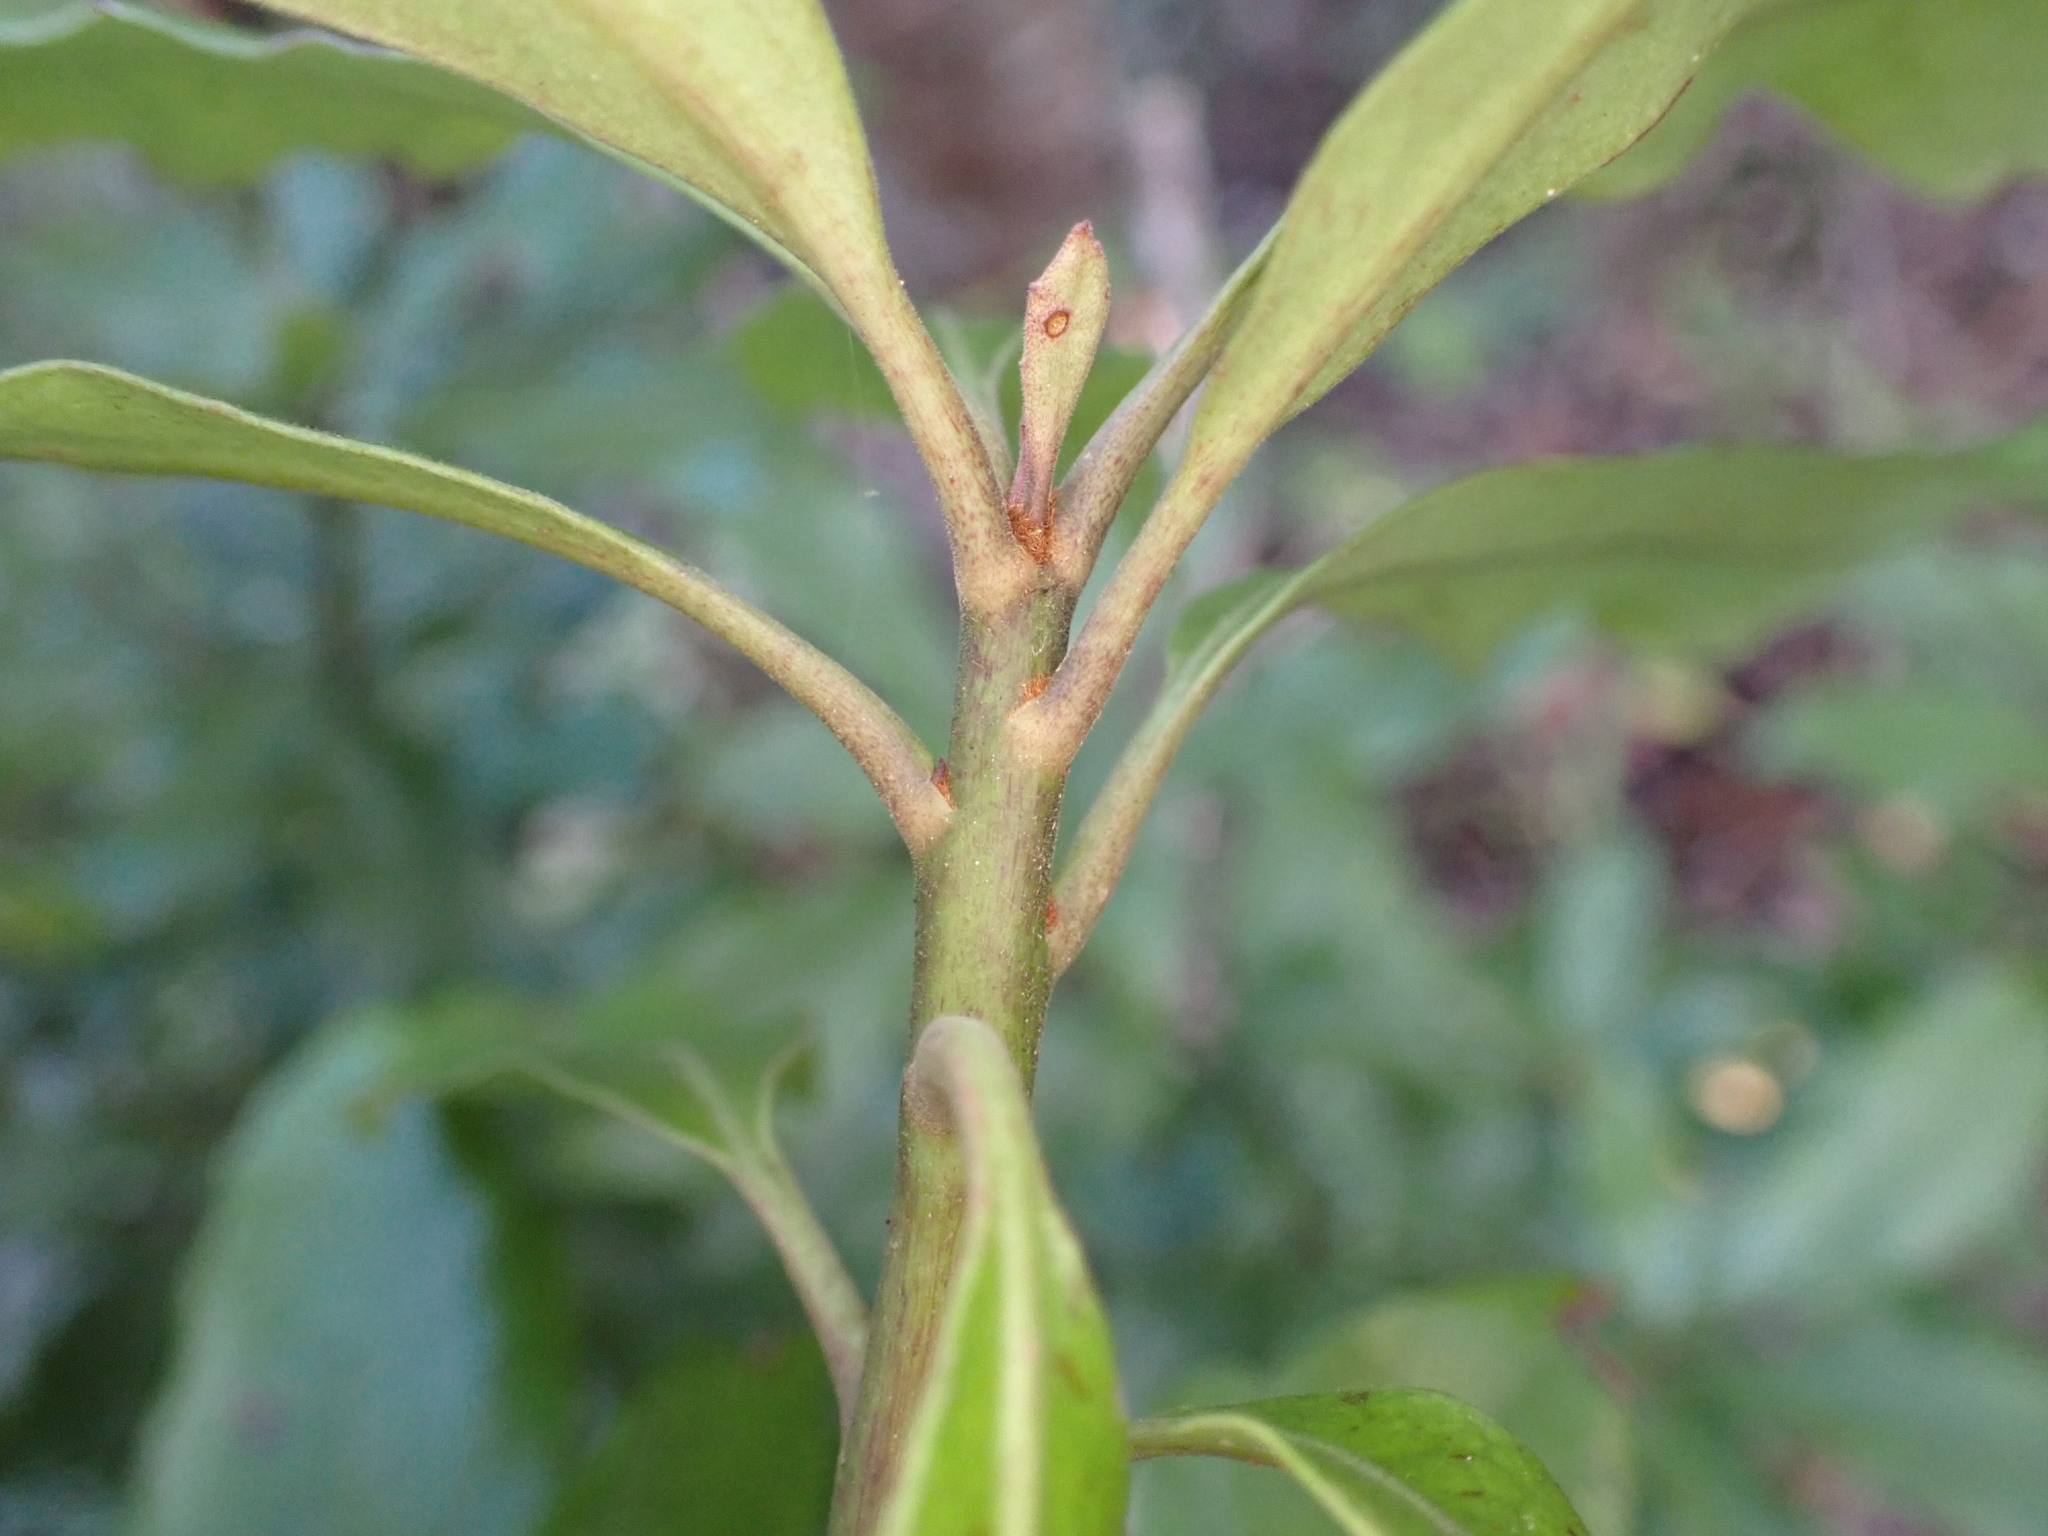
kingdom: Plantae
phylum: Tracheophyta
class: Magnoliopsida
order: Asterales
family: Alseuosmiaceae
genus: Alseuosmia
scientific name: Alseuosmia macrophylla
